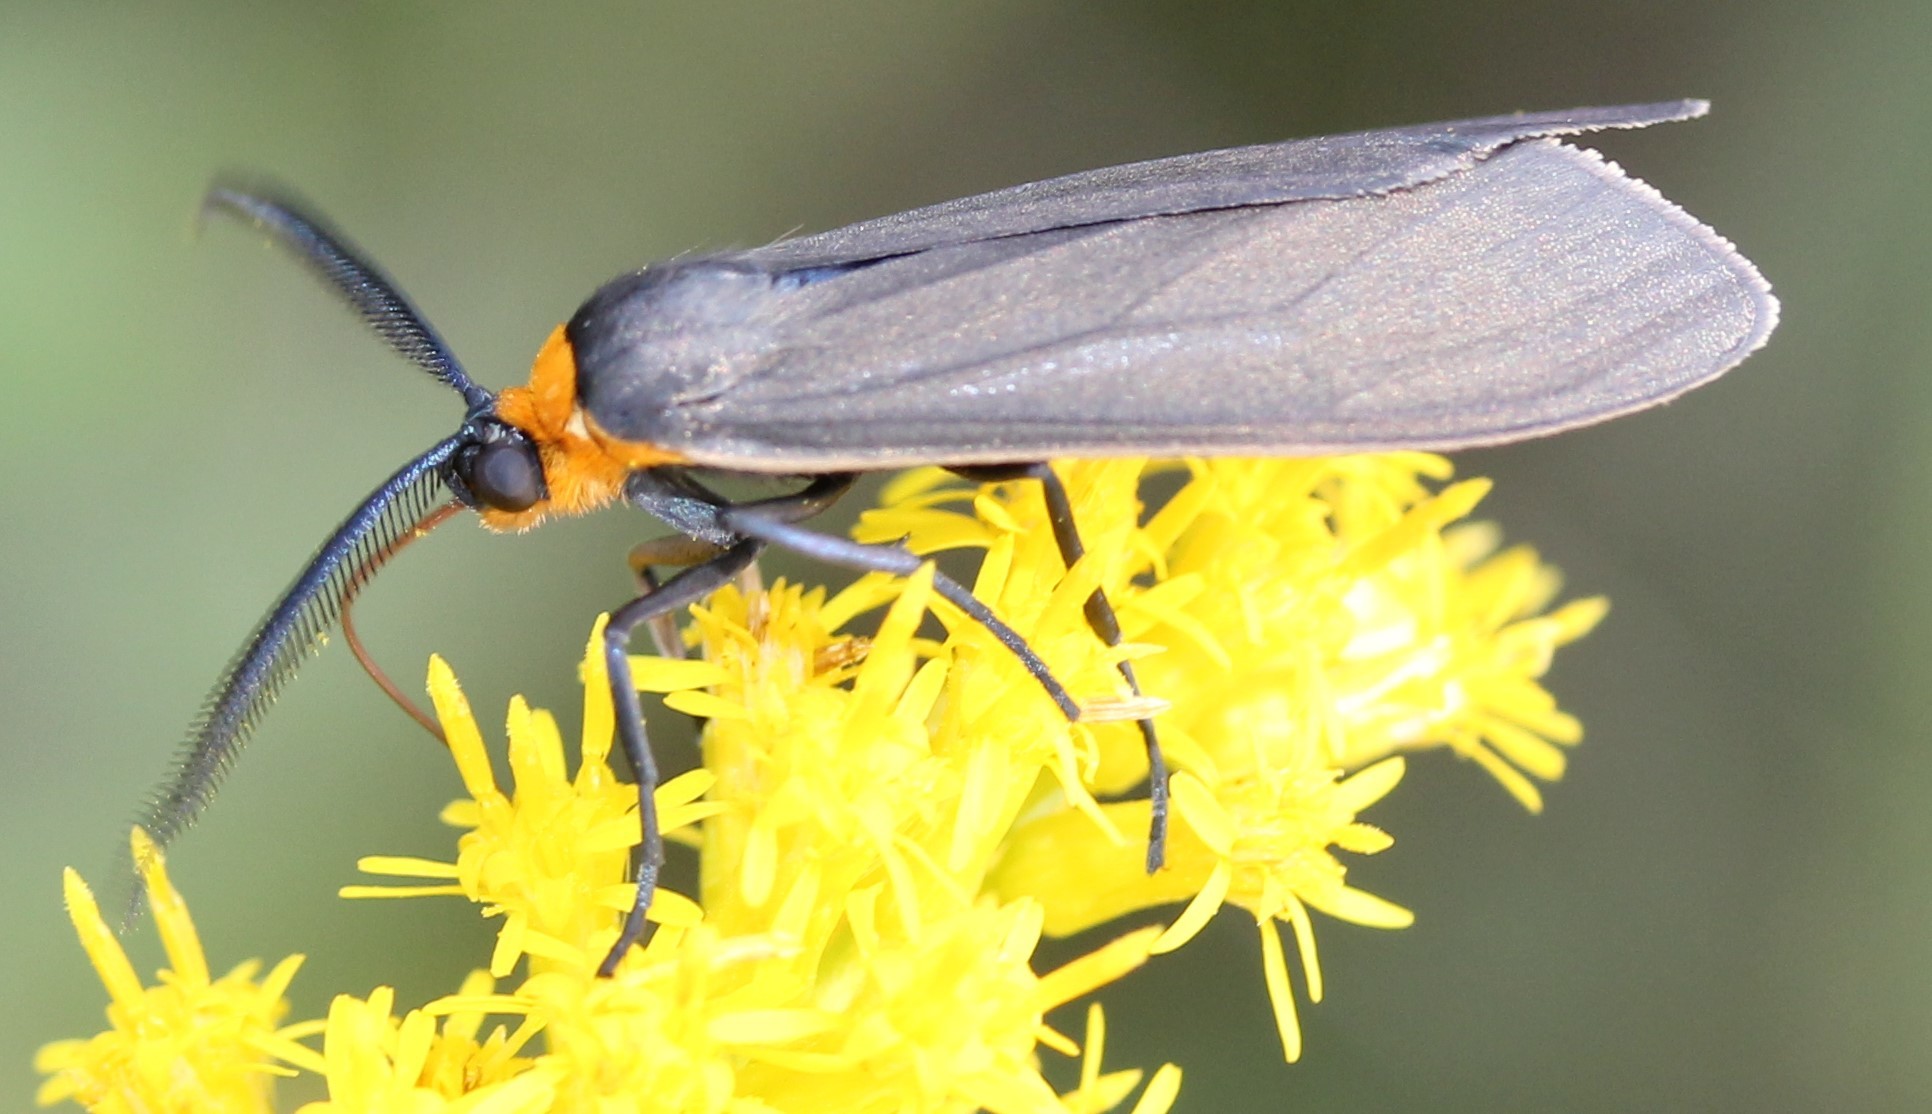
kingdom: Animalia
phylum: Arthropoda
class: Insecta
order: Lepidoptera
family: Erebidae
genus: Cisseps
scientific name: Cisseps fulvicollis
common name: Yellow-collared scape moth
